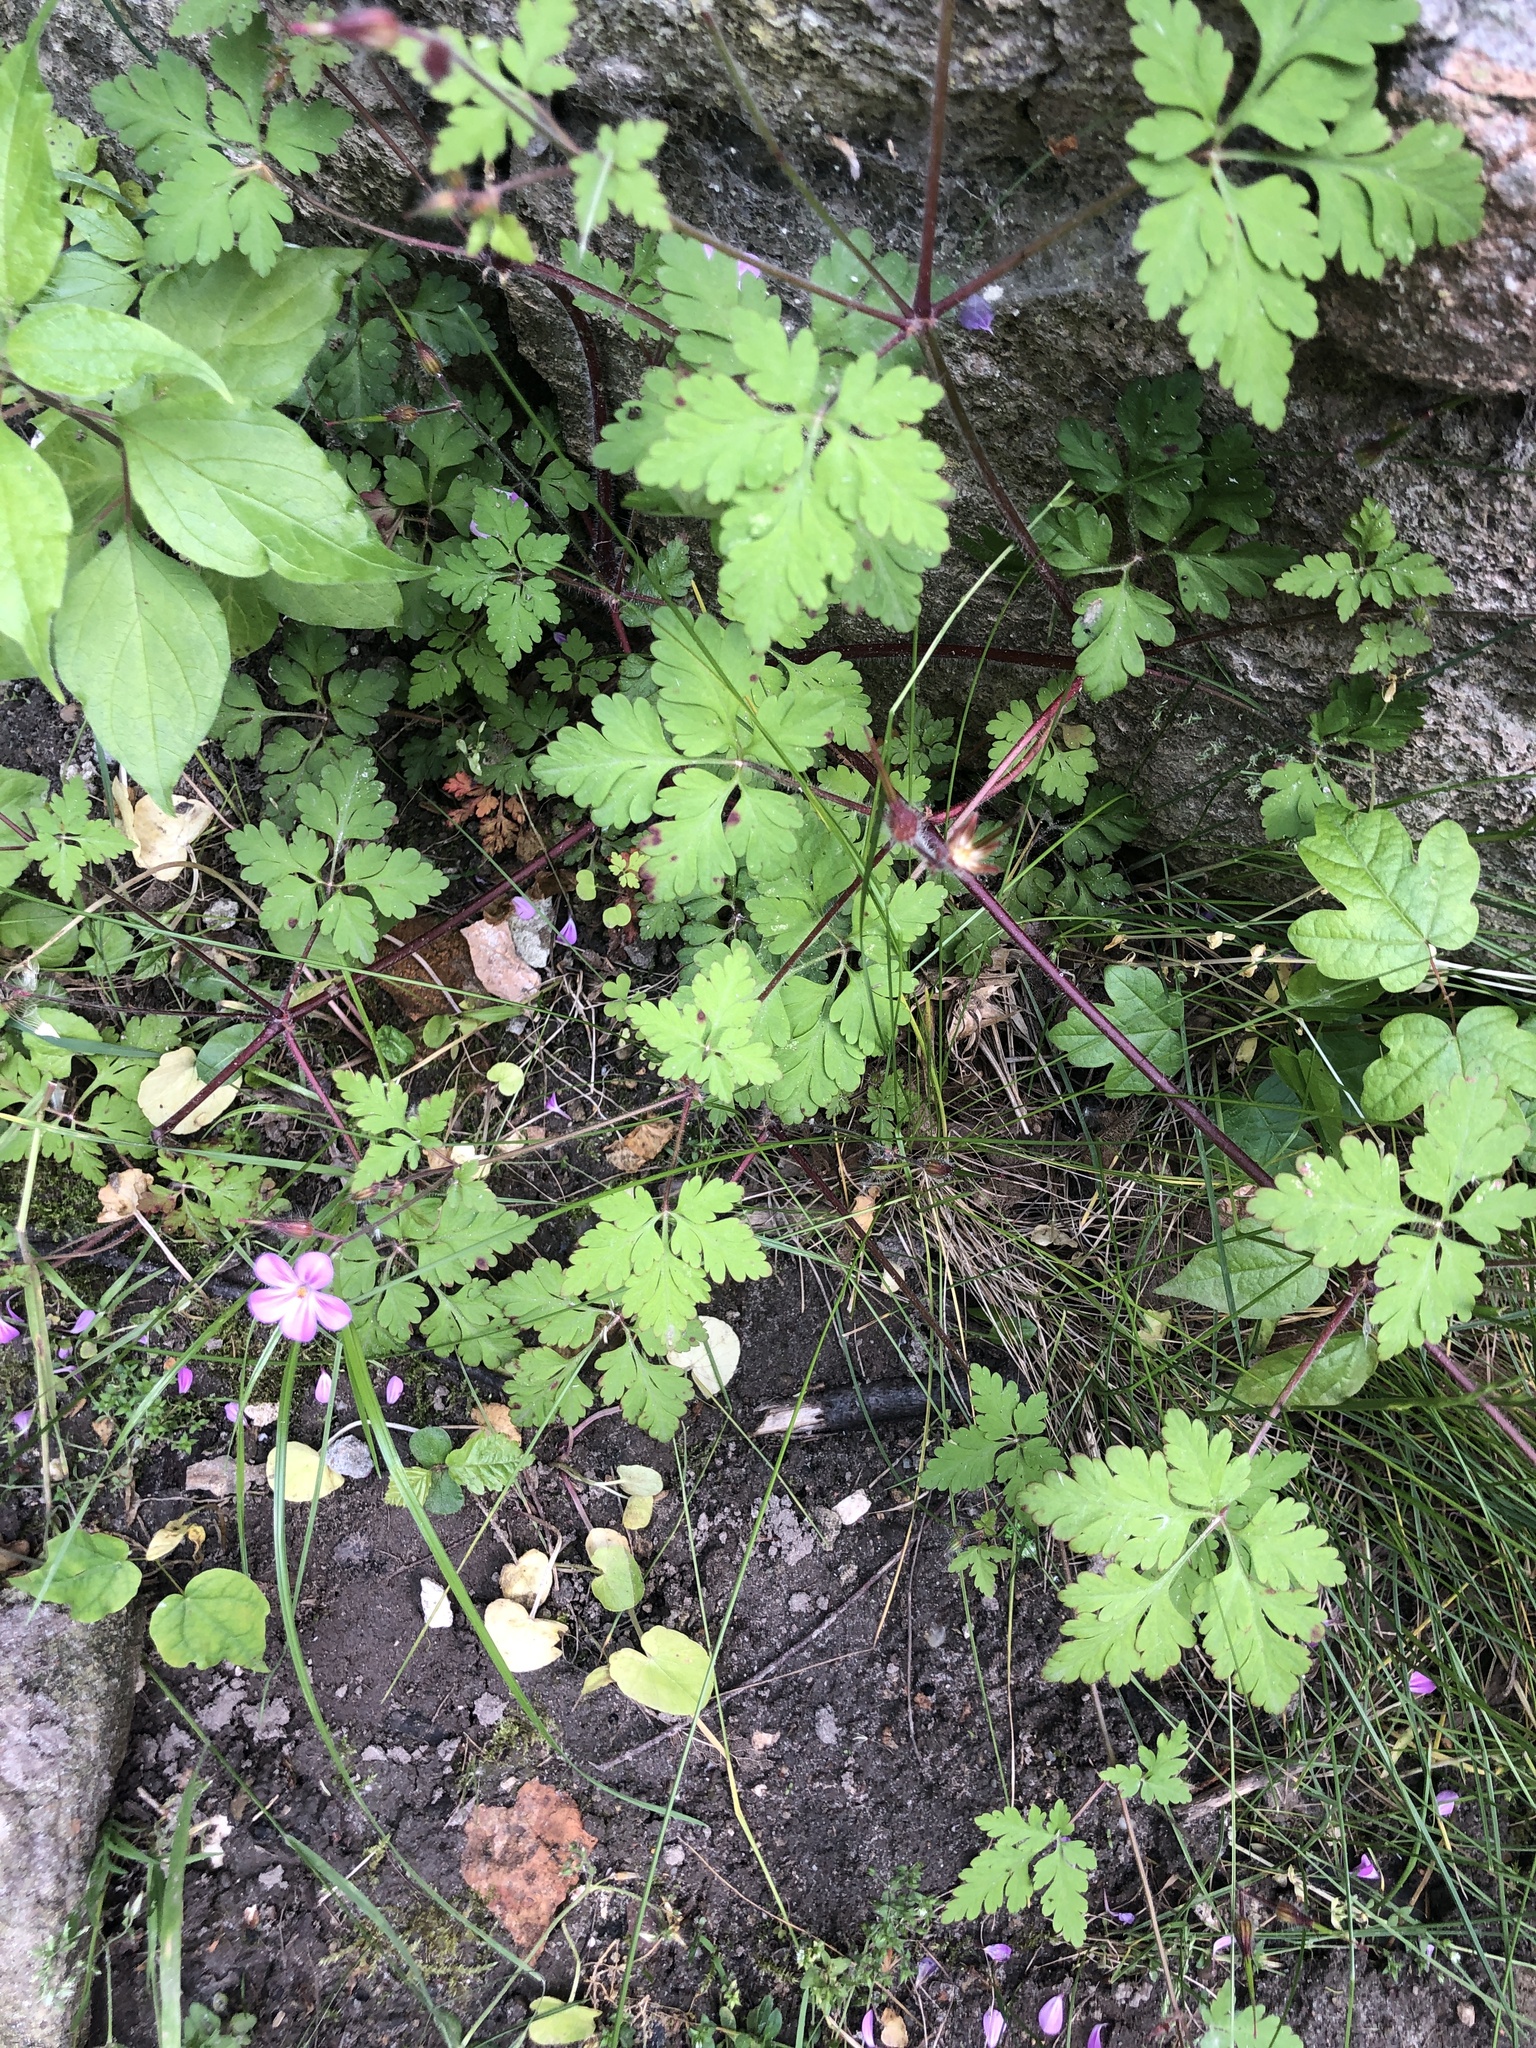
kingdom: Plantae
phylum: Tracheophyta
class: Magnoliopsida
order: Geraniales
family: Geraniaceae
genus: Geranium
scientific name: Geranium robertianum
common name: Herb-robert
